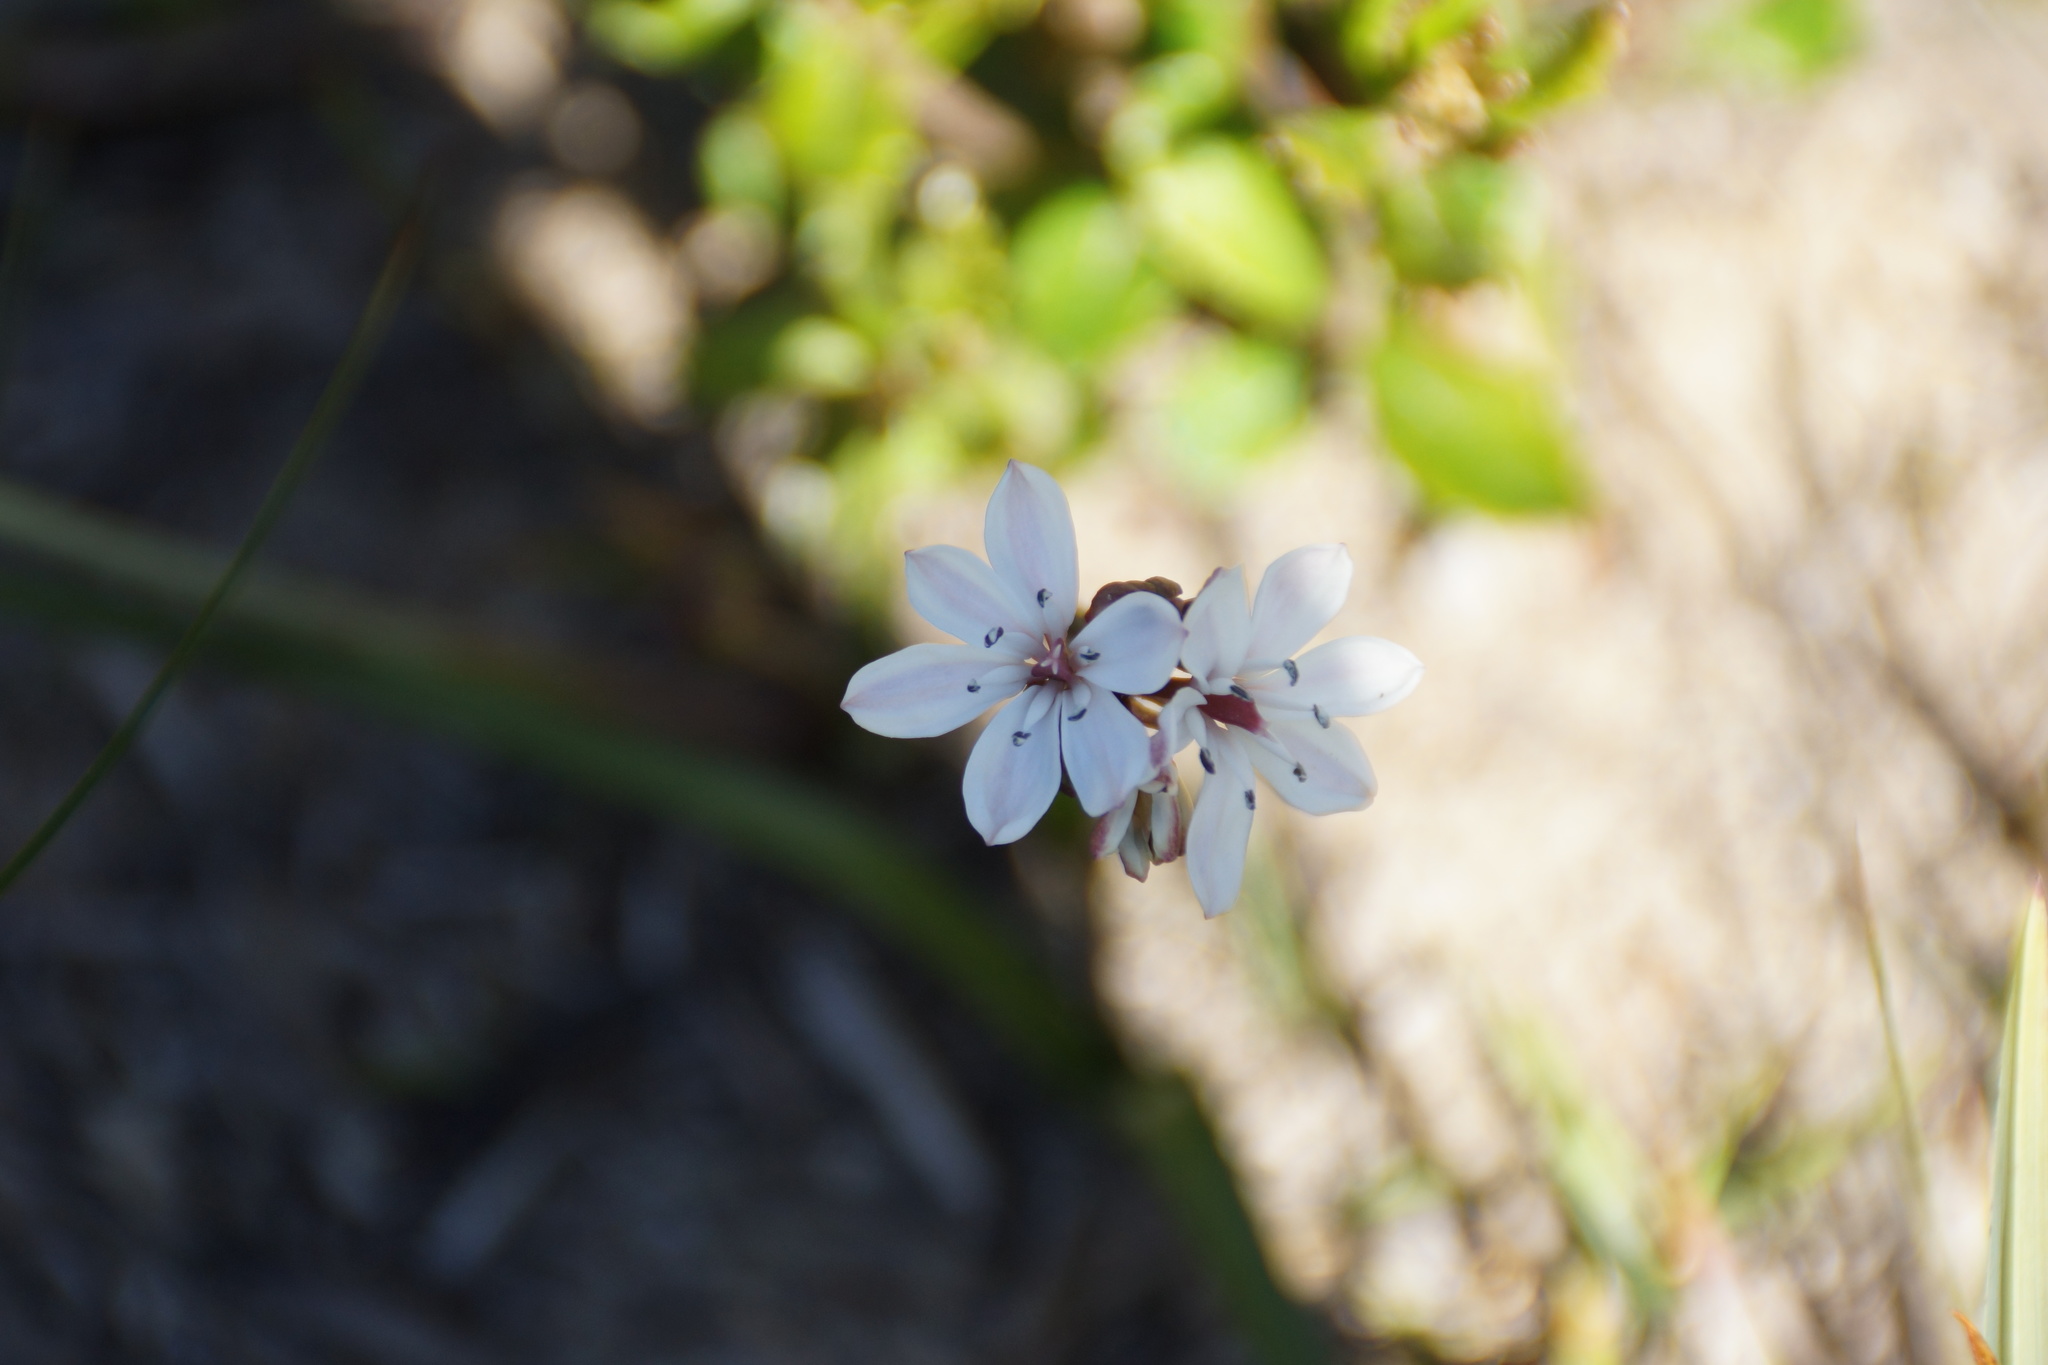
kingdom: Plantae
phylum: Tracheophyta
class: Liliopsida
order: Liliales
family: Colchicaceae
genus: Burchardia
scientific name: Burchardia umbellata
